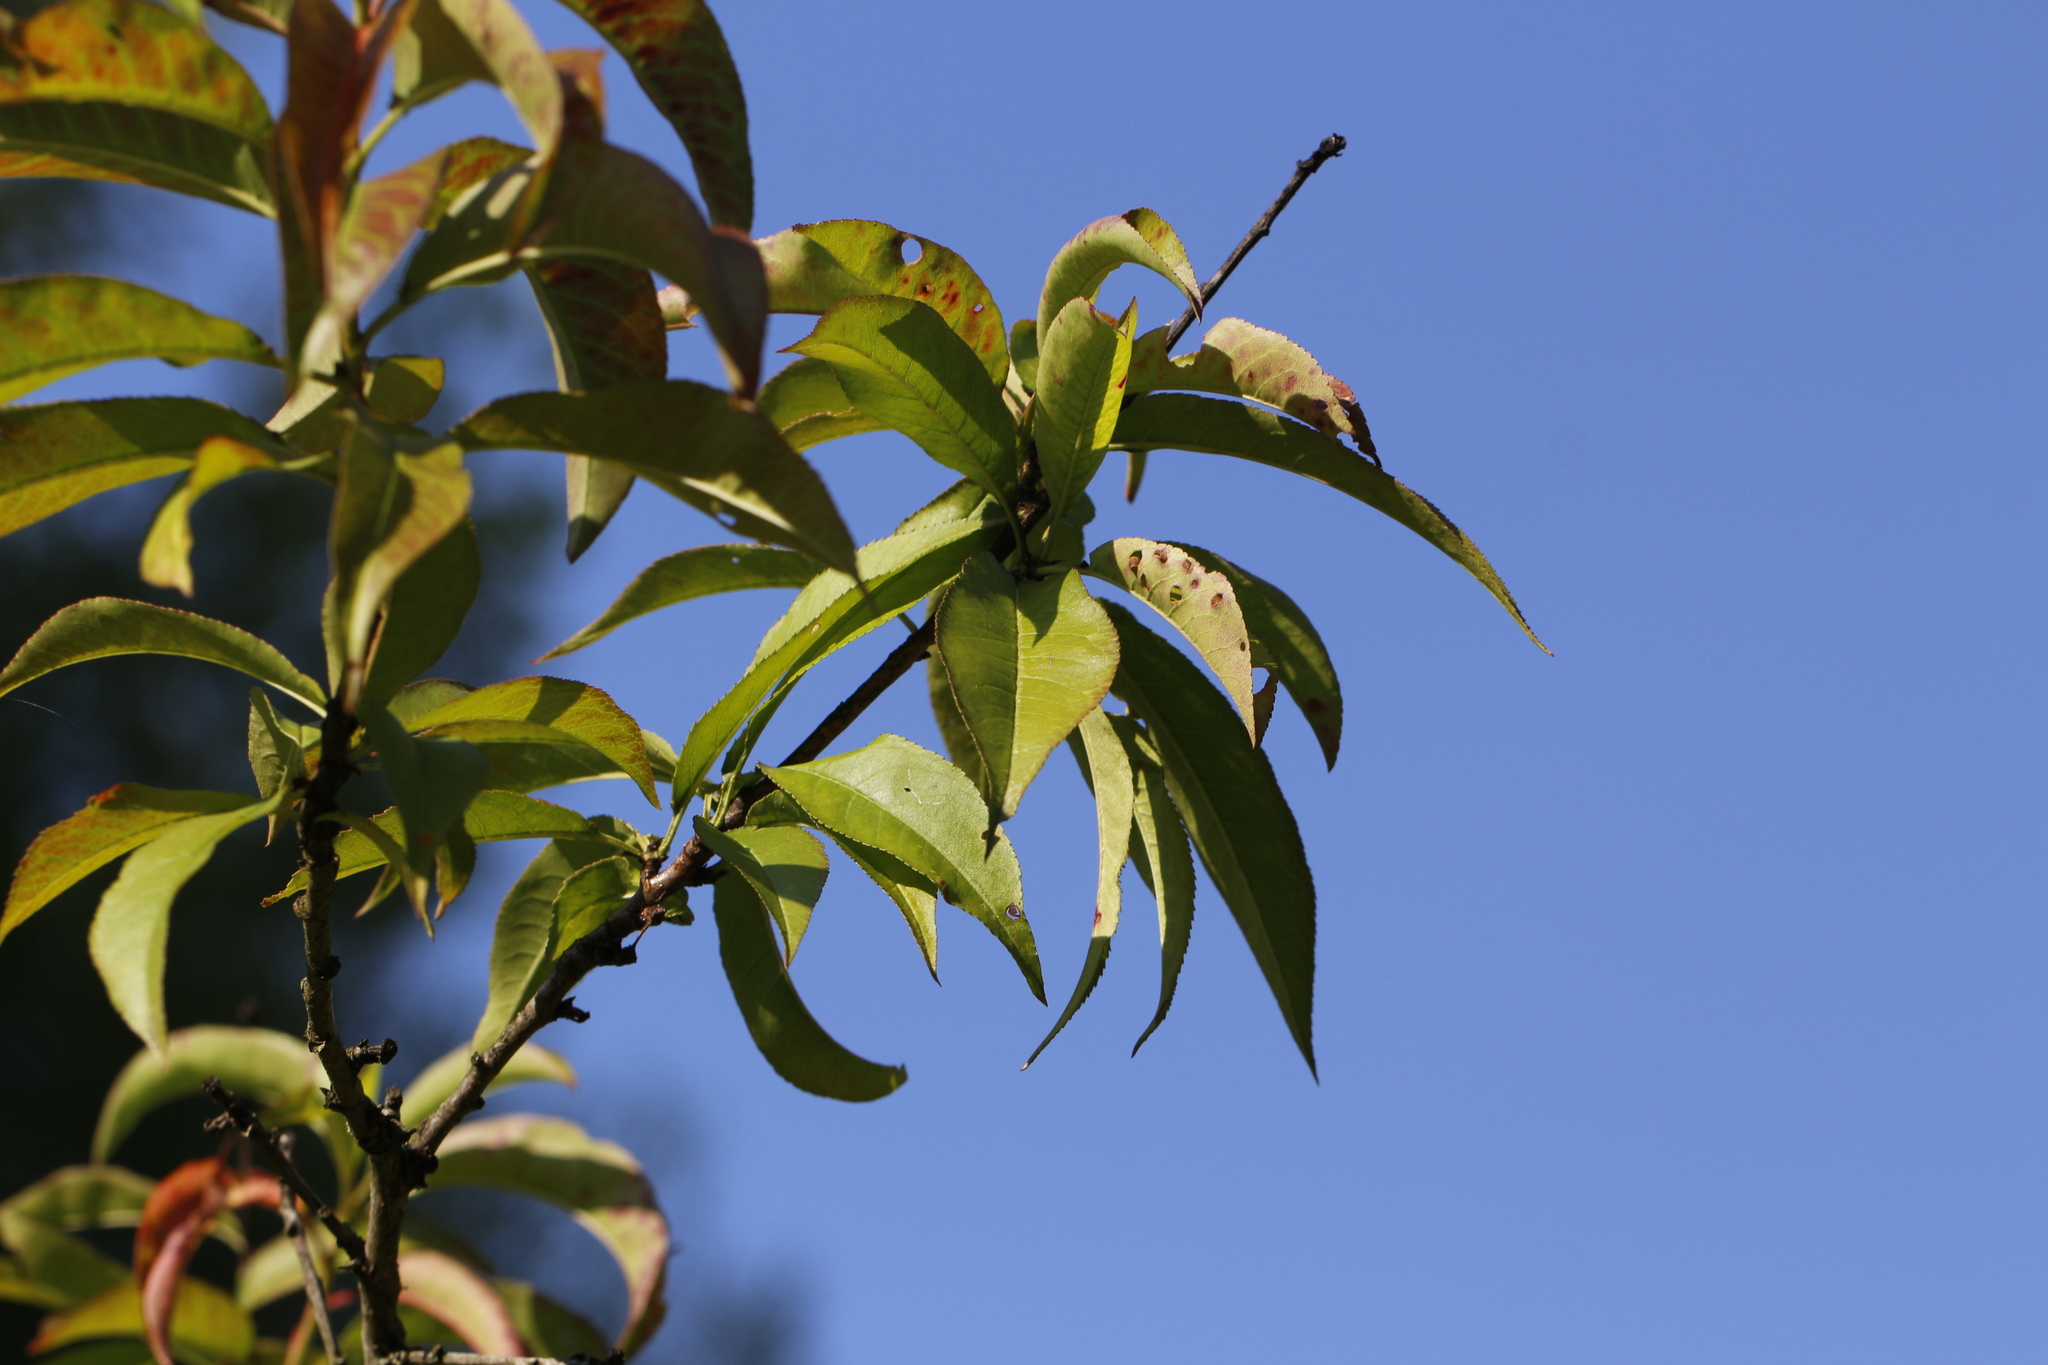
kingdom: Plantae
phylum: Tracheophyta
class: Magnoliopsida
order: Rosales
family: Rosaceae
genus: Prunus
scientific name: Prunus persica
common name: Peach
